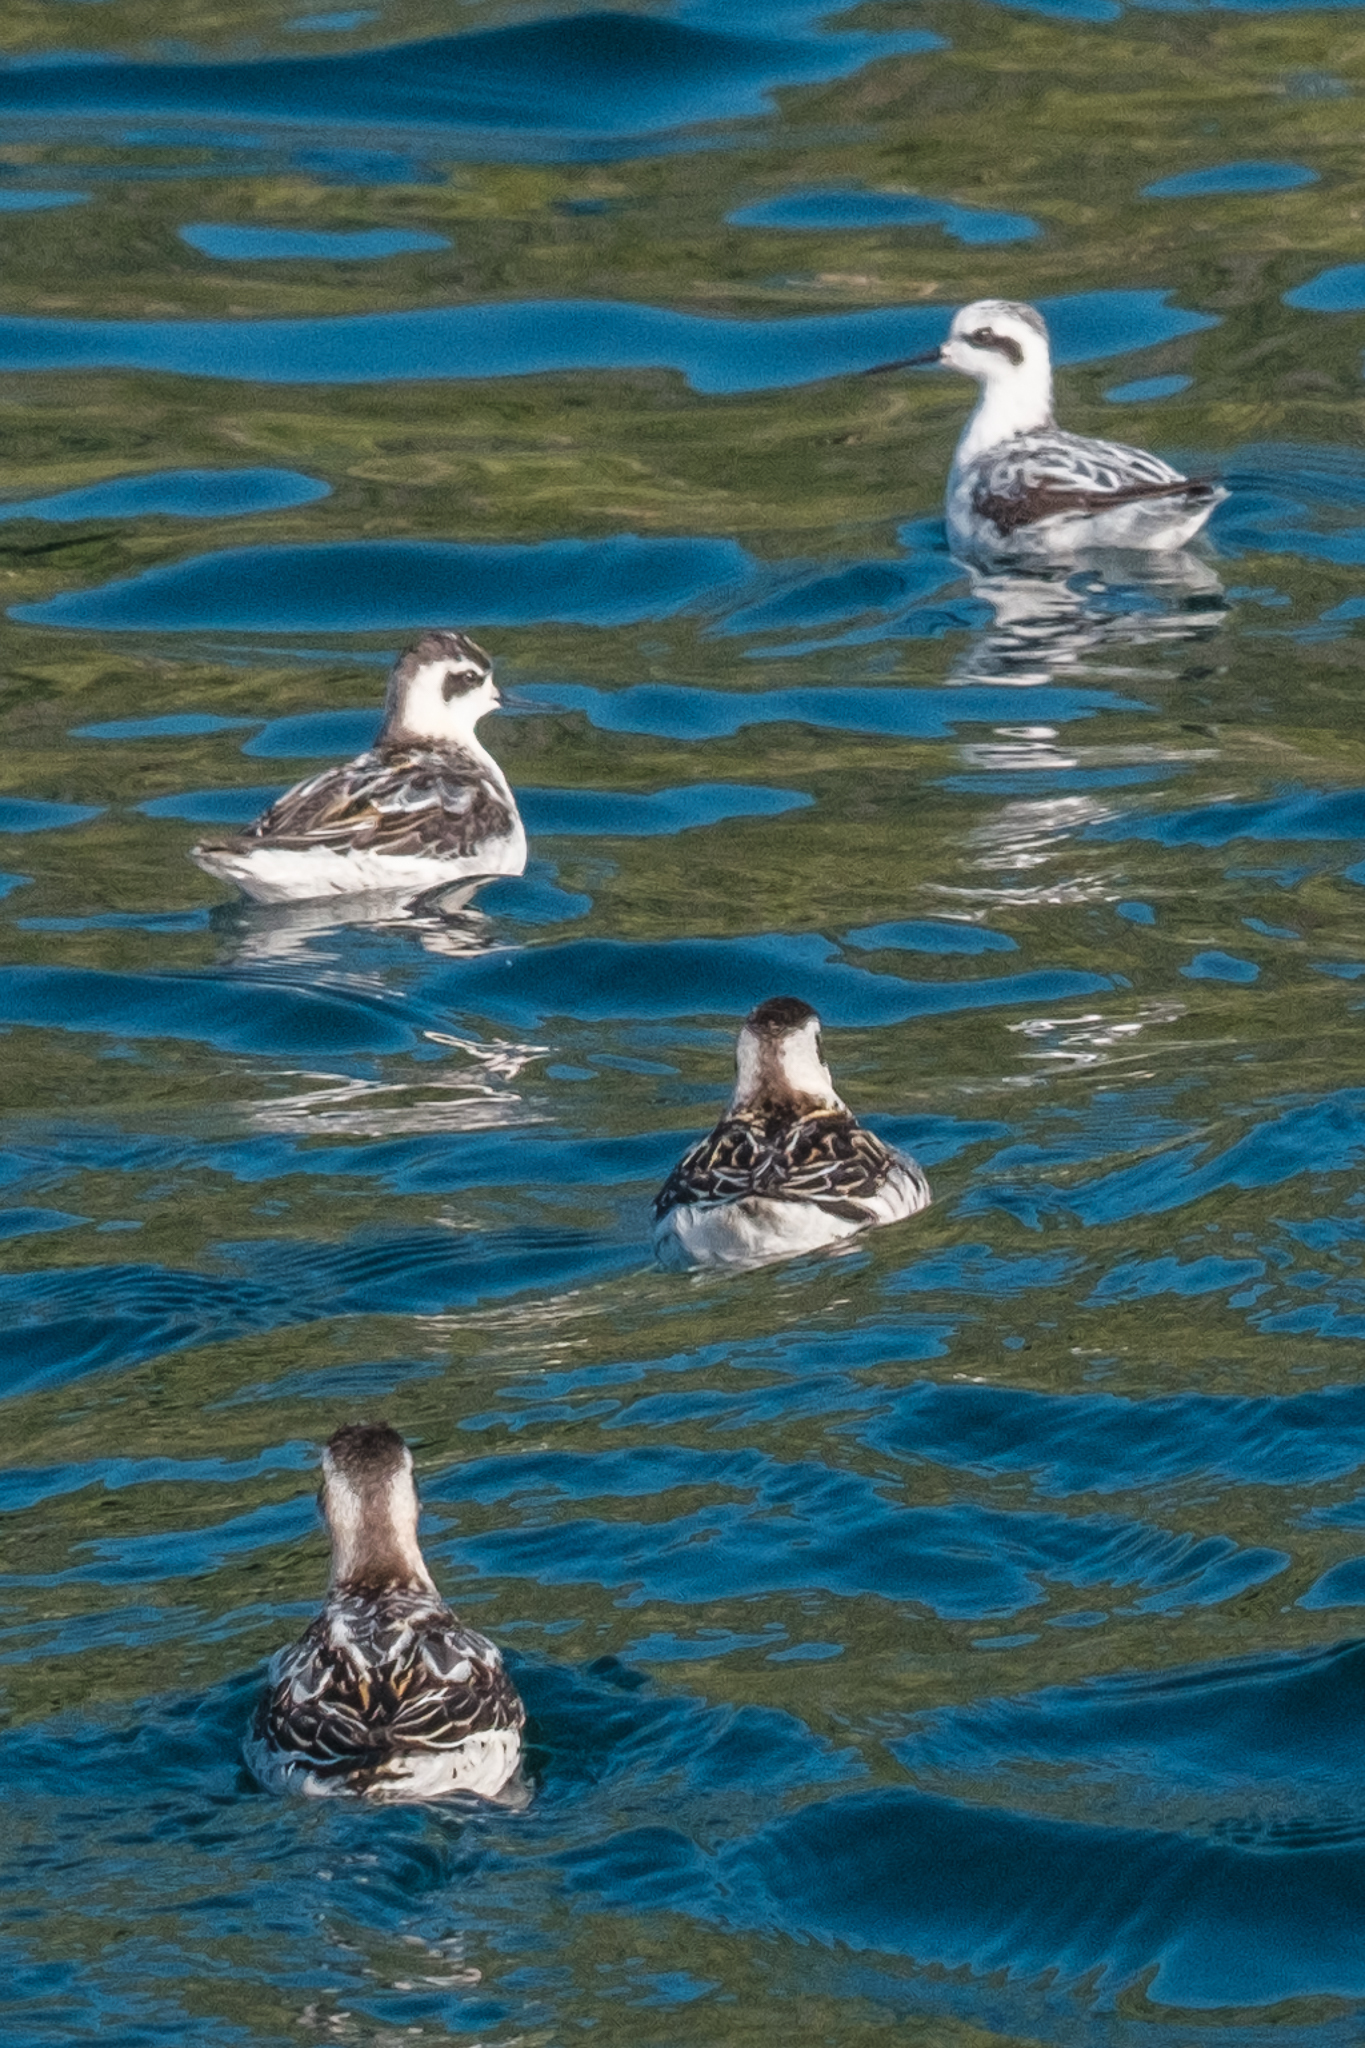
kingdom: Animalia
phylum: Chordata
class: Aves
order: Charadriiformes
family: Scolopacidae
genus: Phalaropus
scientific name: Phalaropus lobatus
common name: Red-necked phalarope
